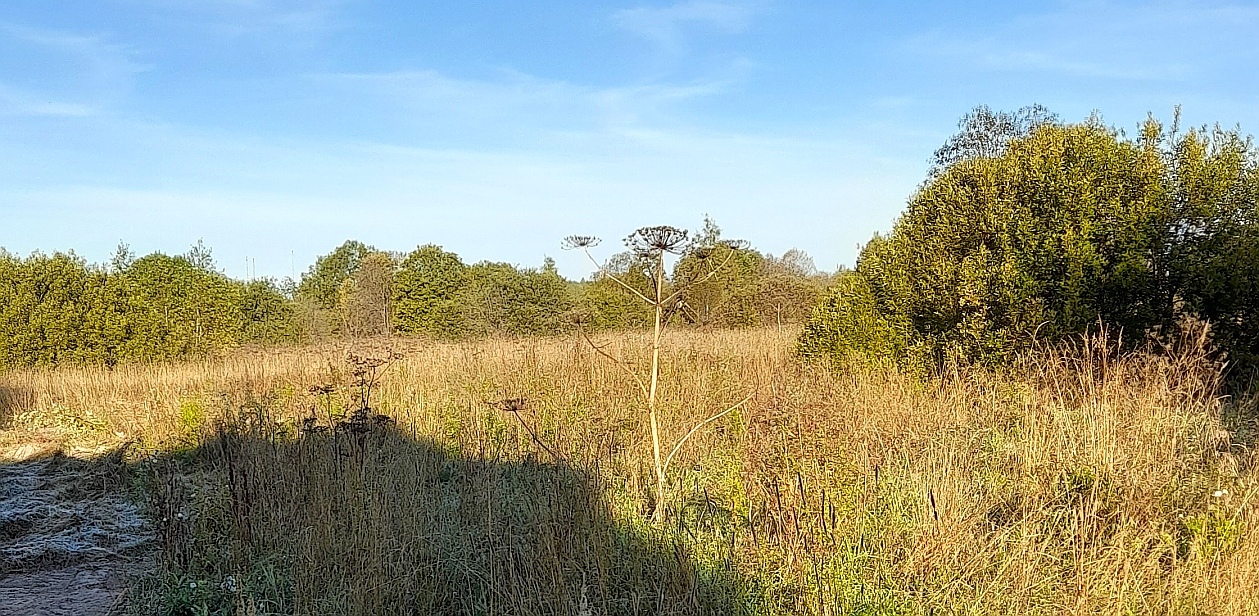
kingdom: Plantae
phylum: Tracheophyta
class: Magnoliopsida
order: Apiales
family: Apiaceae
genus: Heracleum
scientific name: Heracleum sosnowskyi
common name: Sosnowsky's hogweed
